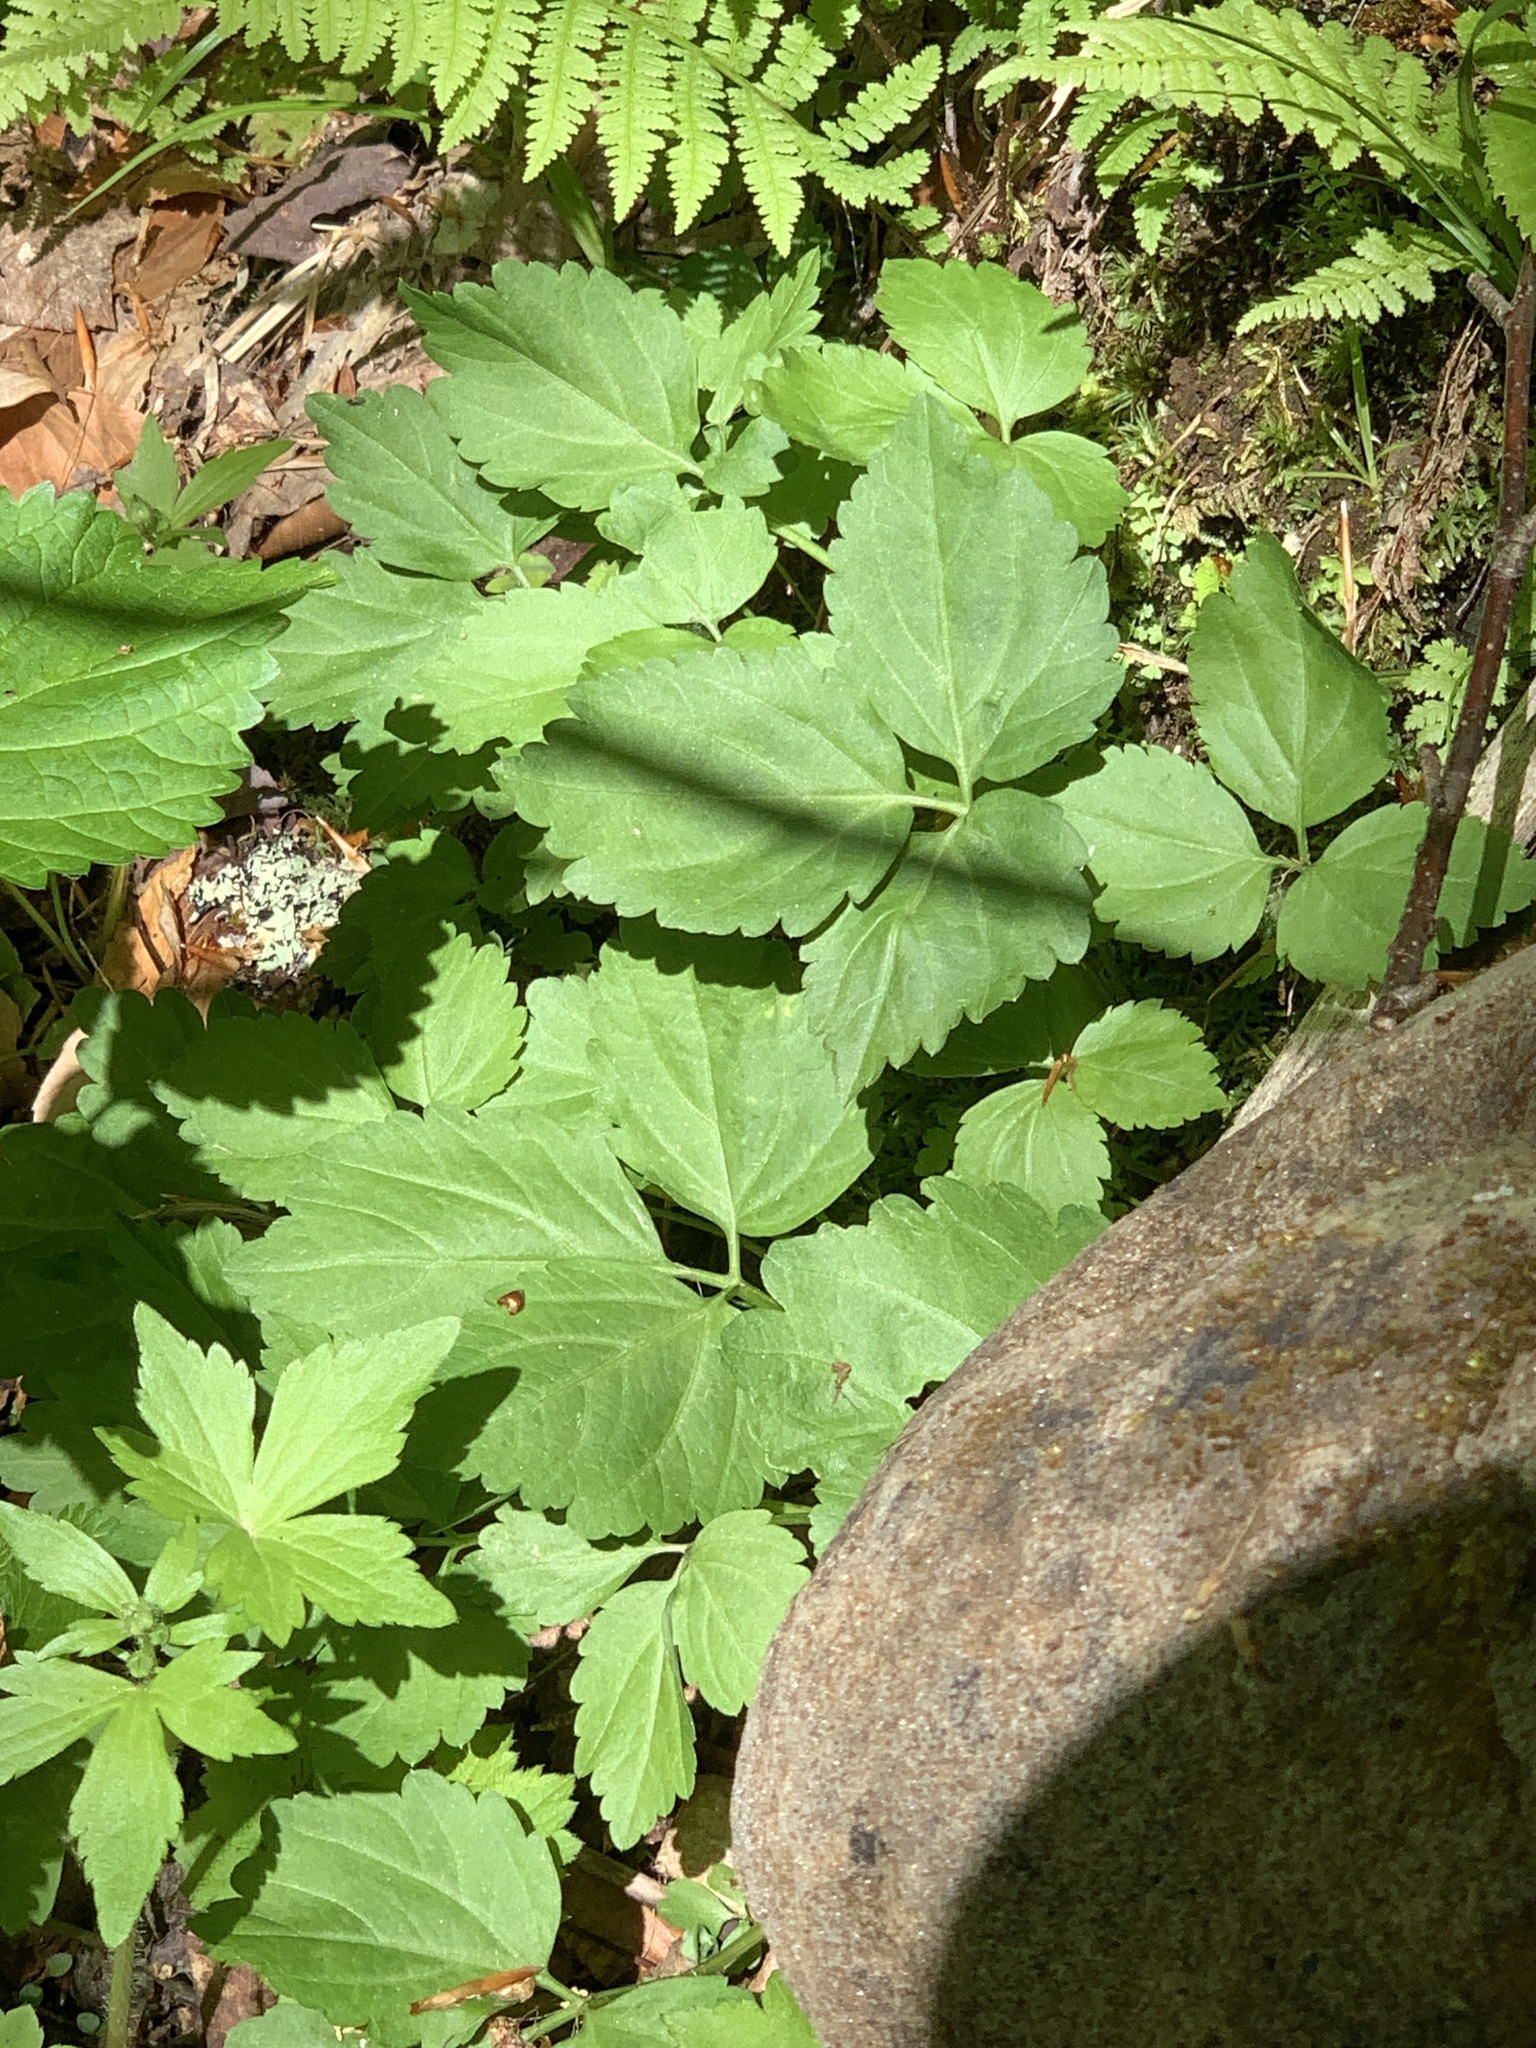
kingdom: Plantae
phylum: Tracheophyta
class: Magnoliopsida
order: Brassicales
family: Brassicaceae
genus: Cardamine
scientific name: Cardamine diphylla
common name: Broad-leaved toothwort
